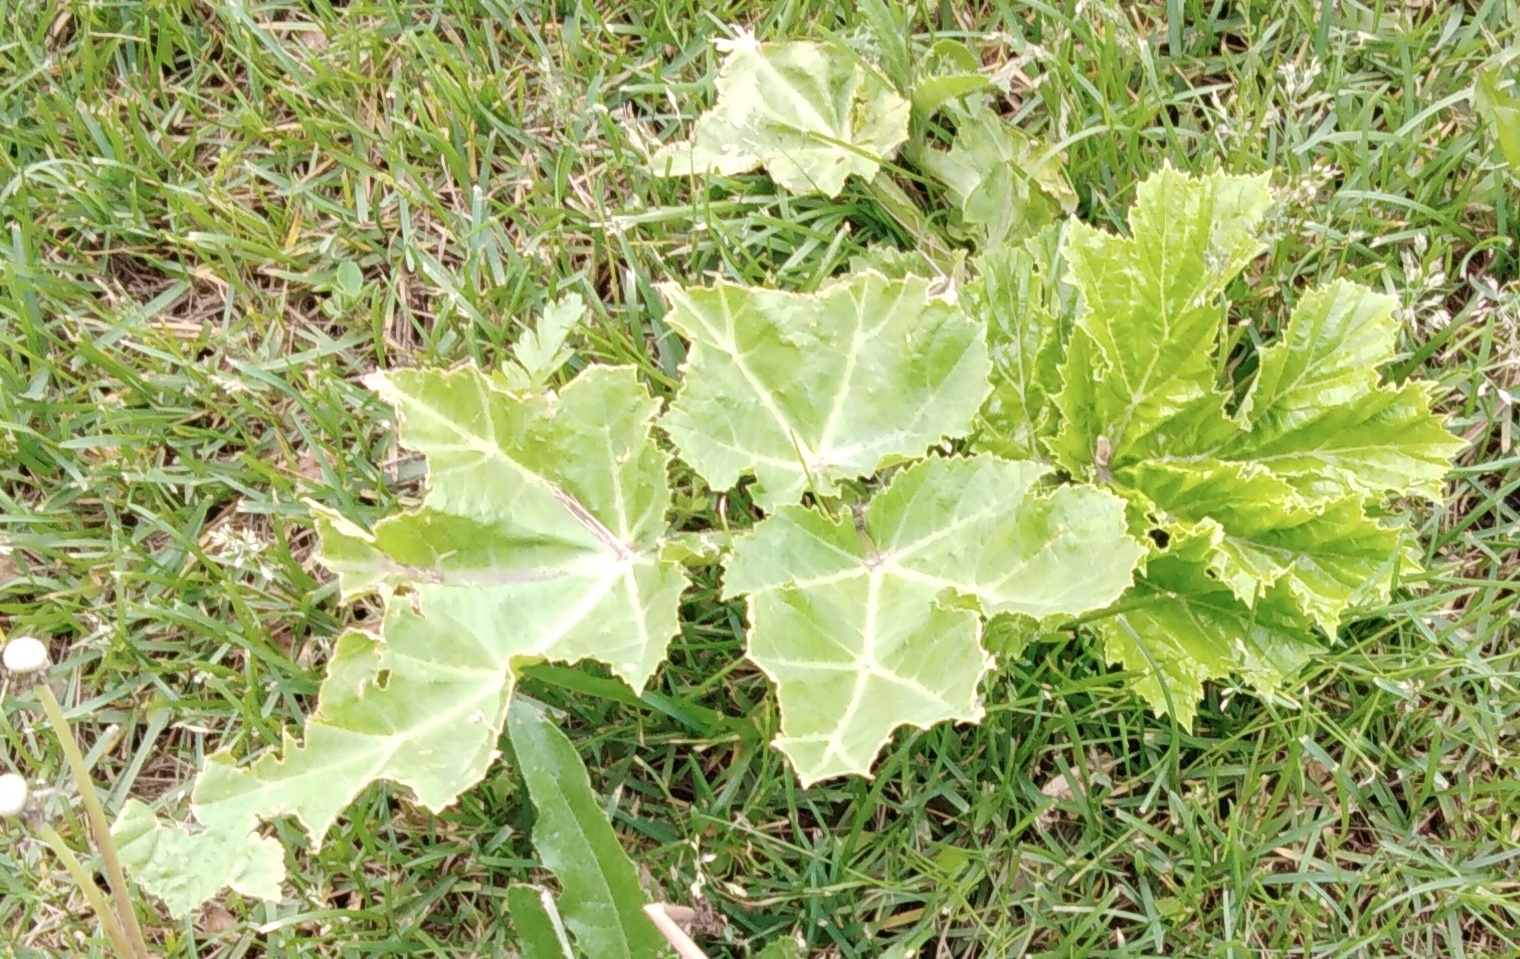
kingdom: Plantae
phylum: Tracheophyta
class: Magnoliopsida
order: Apiales
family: Apiaceae
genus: Heracleum
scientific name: Heracleum sosnowskyi
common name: Sosnowsky's hogweed
